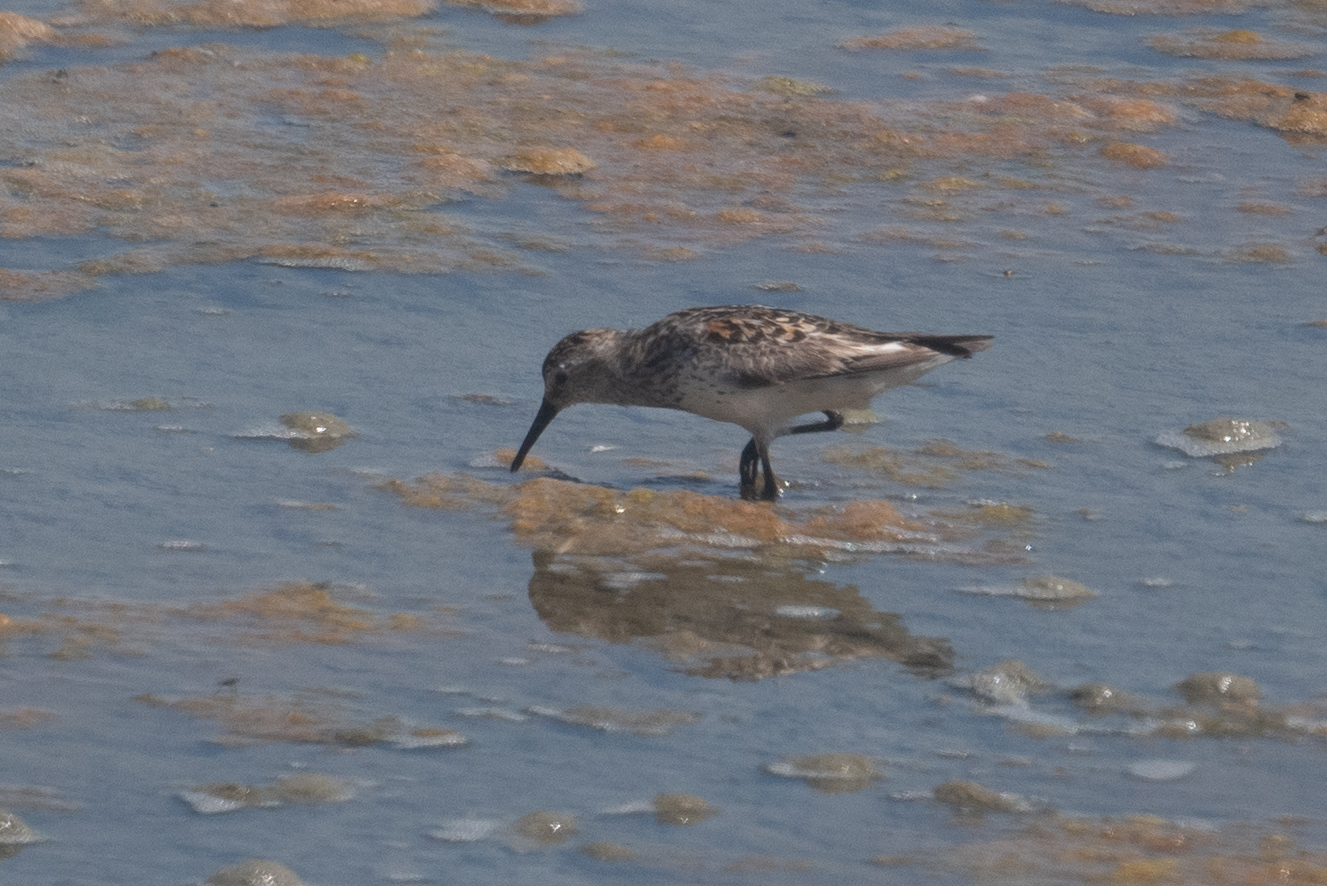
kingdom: Animalia
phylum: Chordata
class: Aves
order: Charadriiformes
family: Scolopacidae
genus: Calidris
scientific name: Calidris mauri
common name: Western sandpiper
